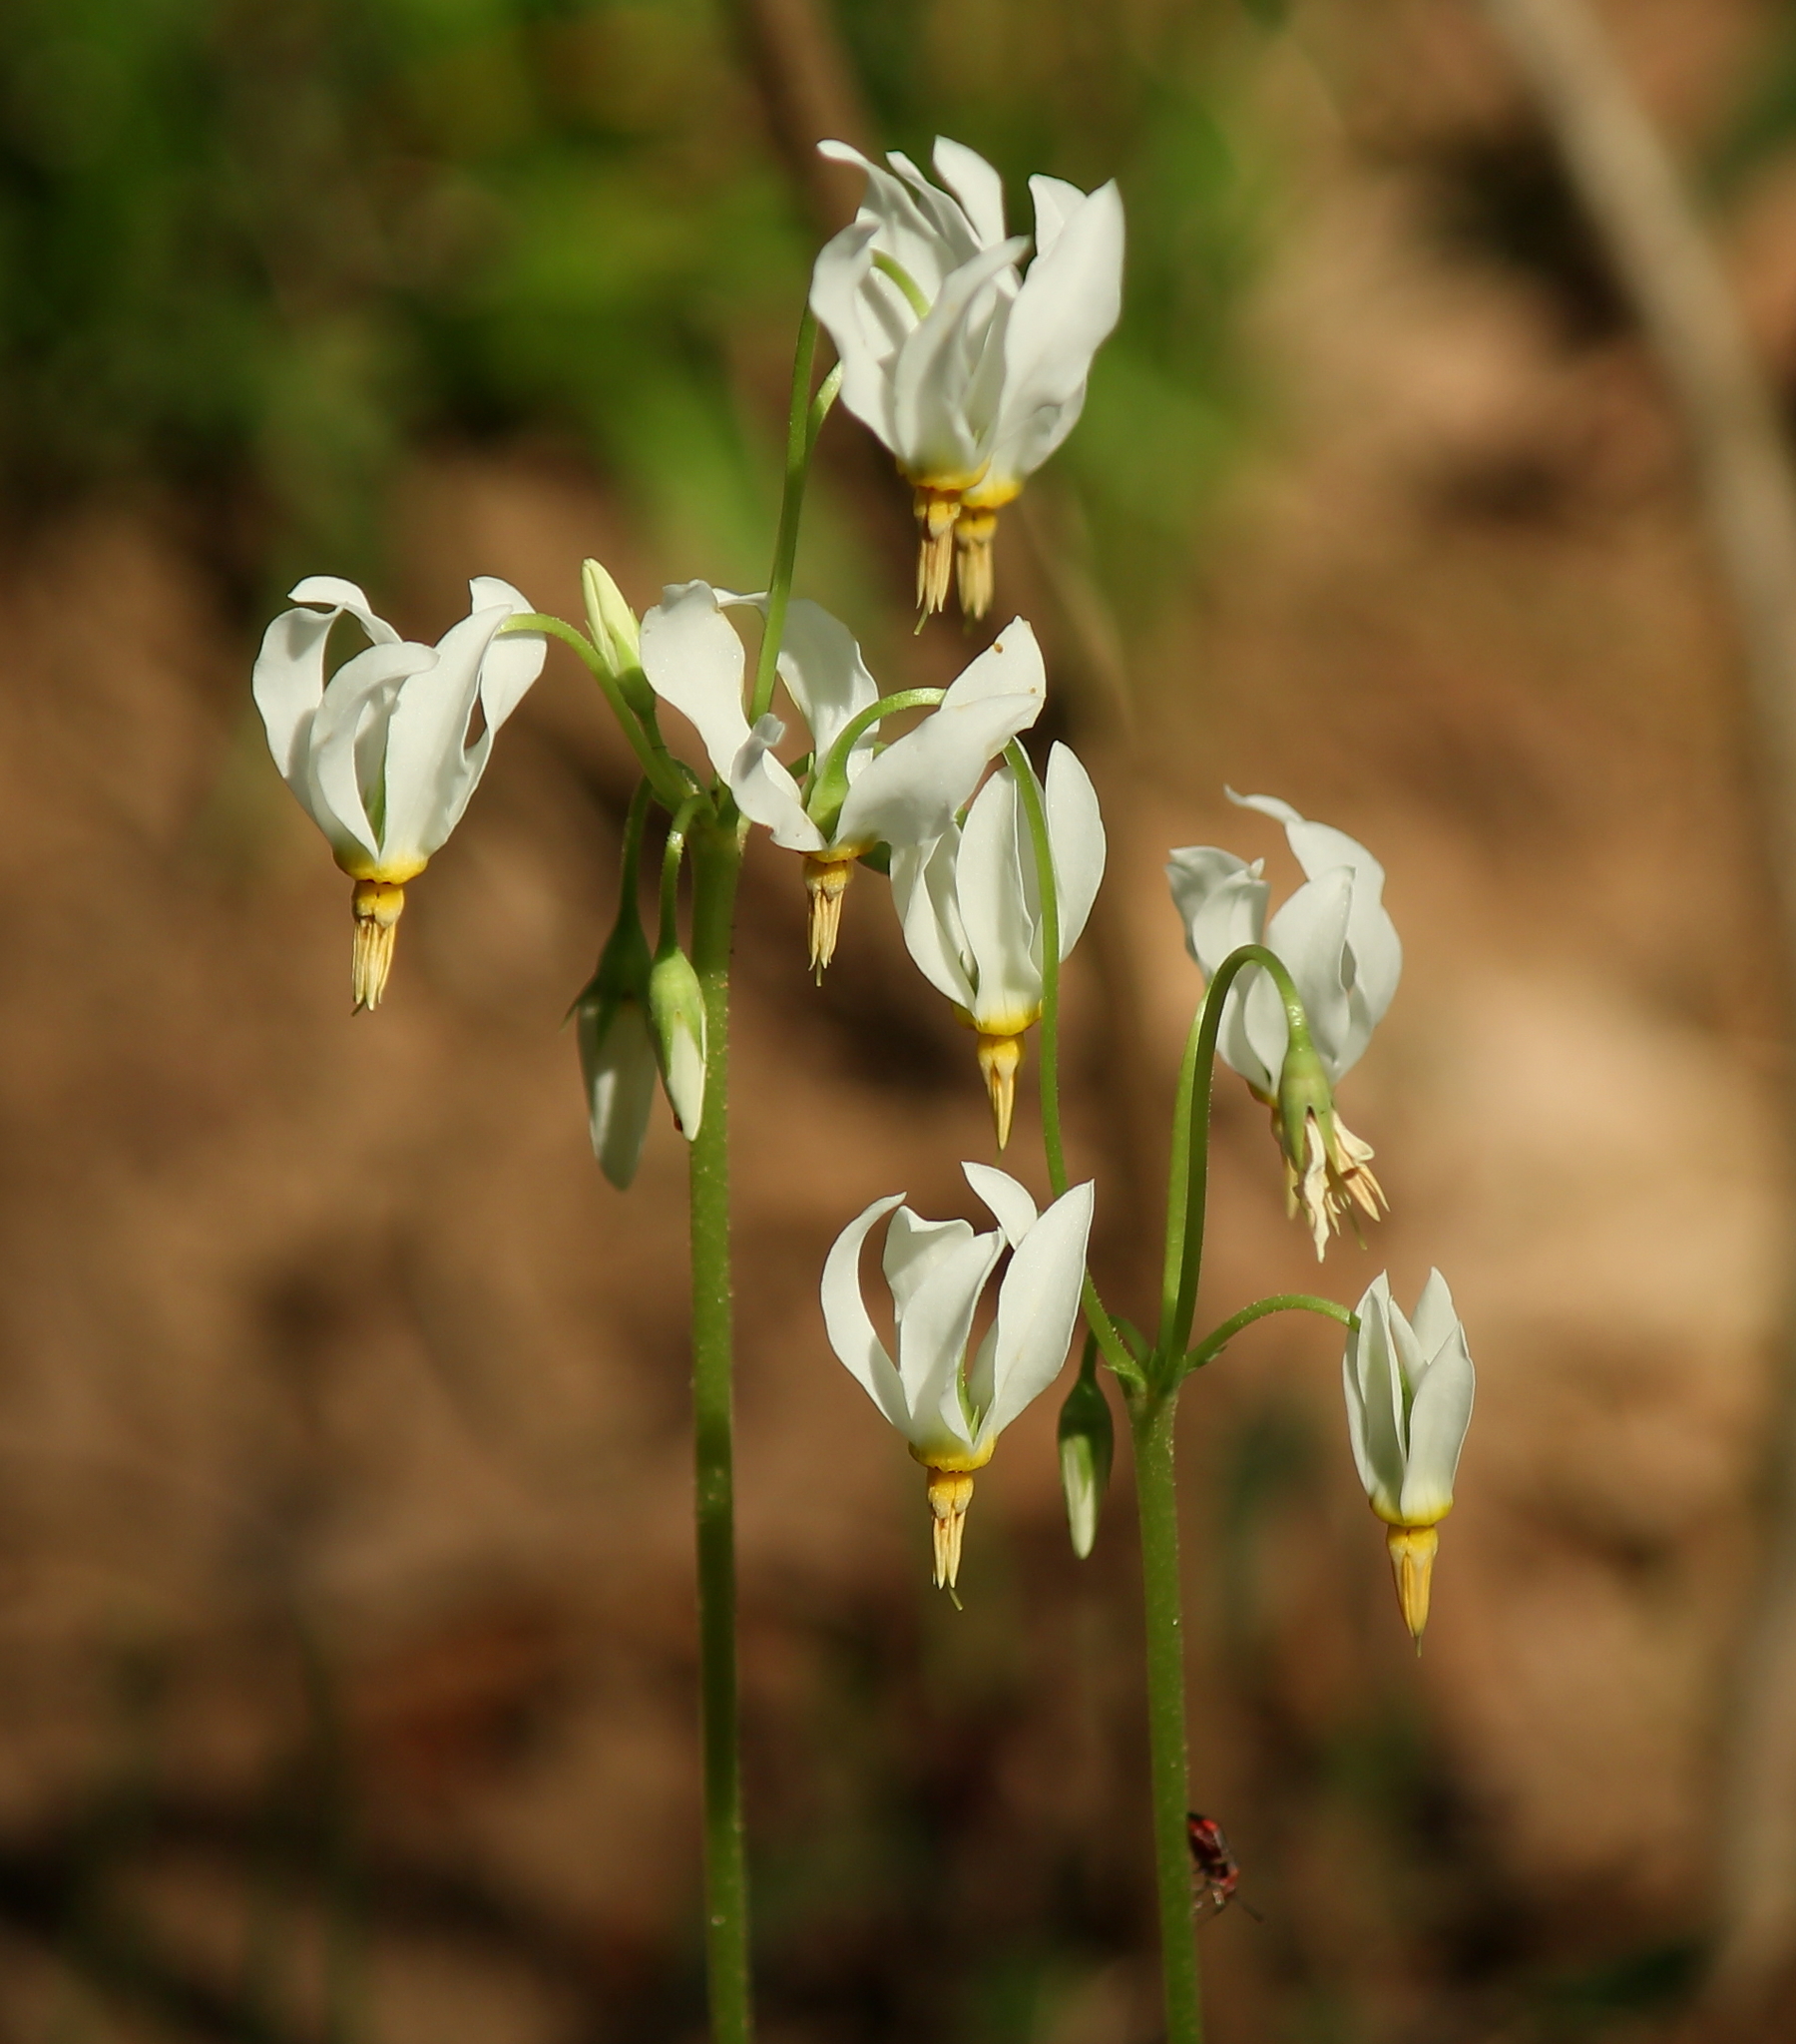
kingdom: Plantae
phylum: Tracheophyta
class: Magnoliopsida
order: Ericales
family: Primulaceae
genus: Dodecatheon
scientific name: Dodecatheon meadia
